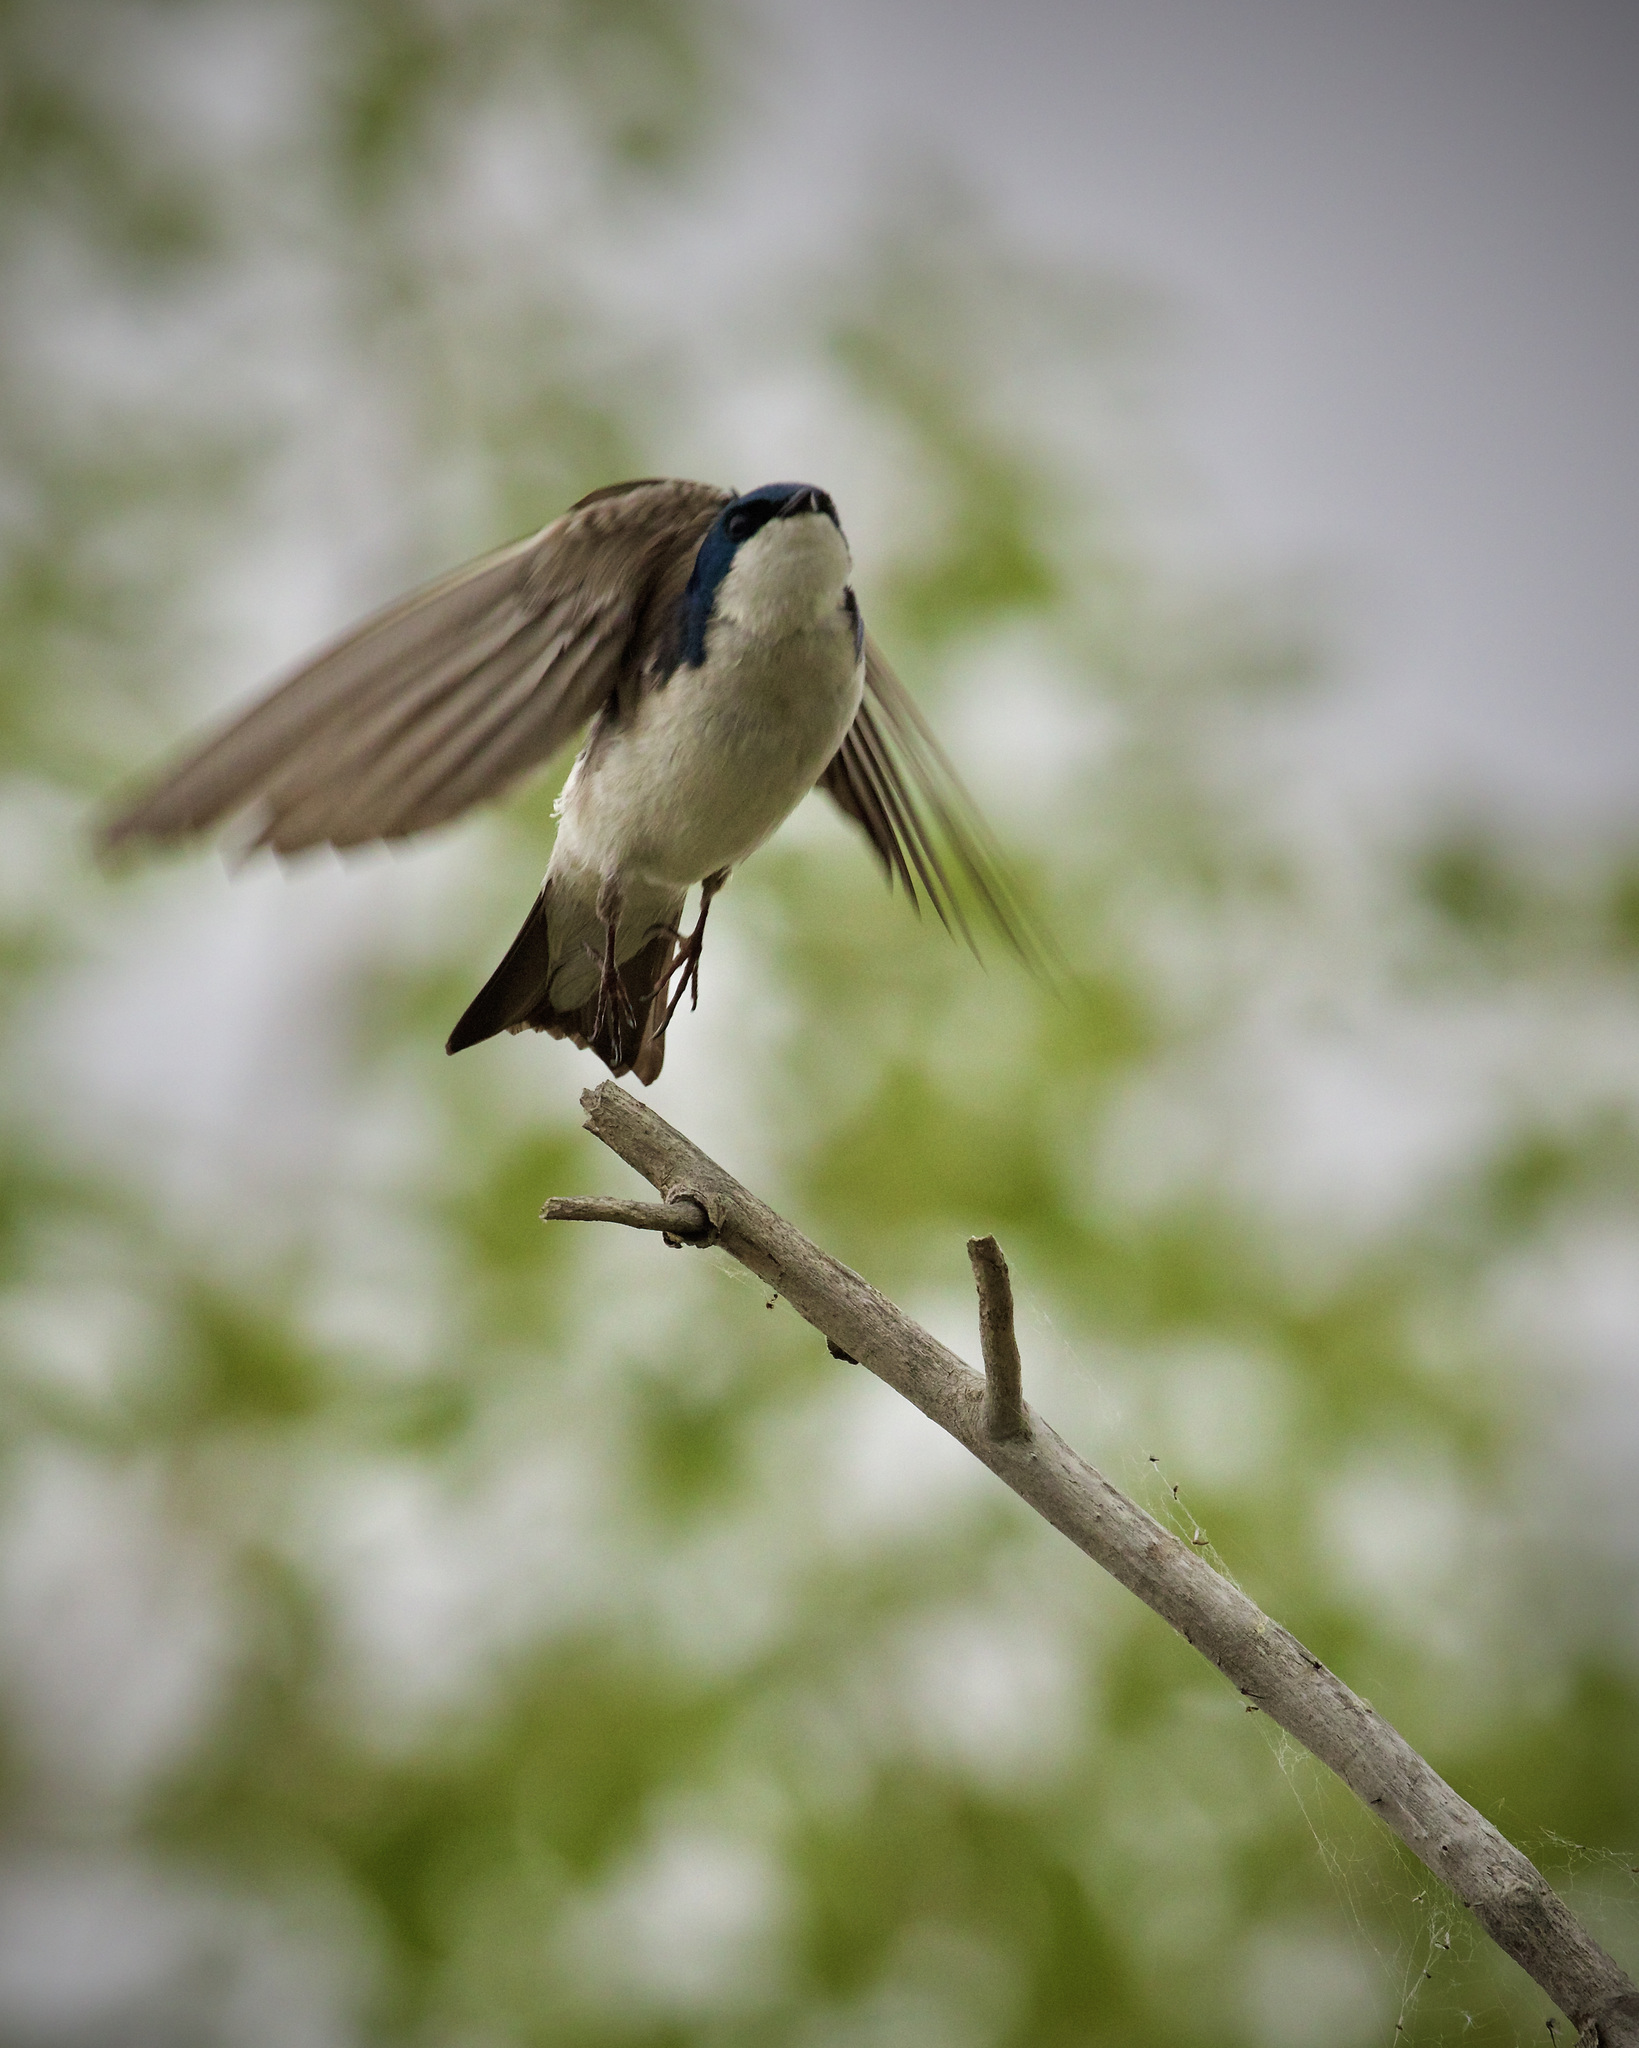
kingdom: Animalia
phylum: Chordata
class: Aves
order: Passeriformes
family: Hirundinidae
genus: Tachycineta
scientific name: Tachycineta bicolor
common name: Tree swallow
